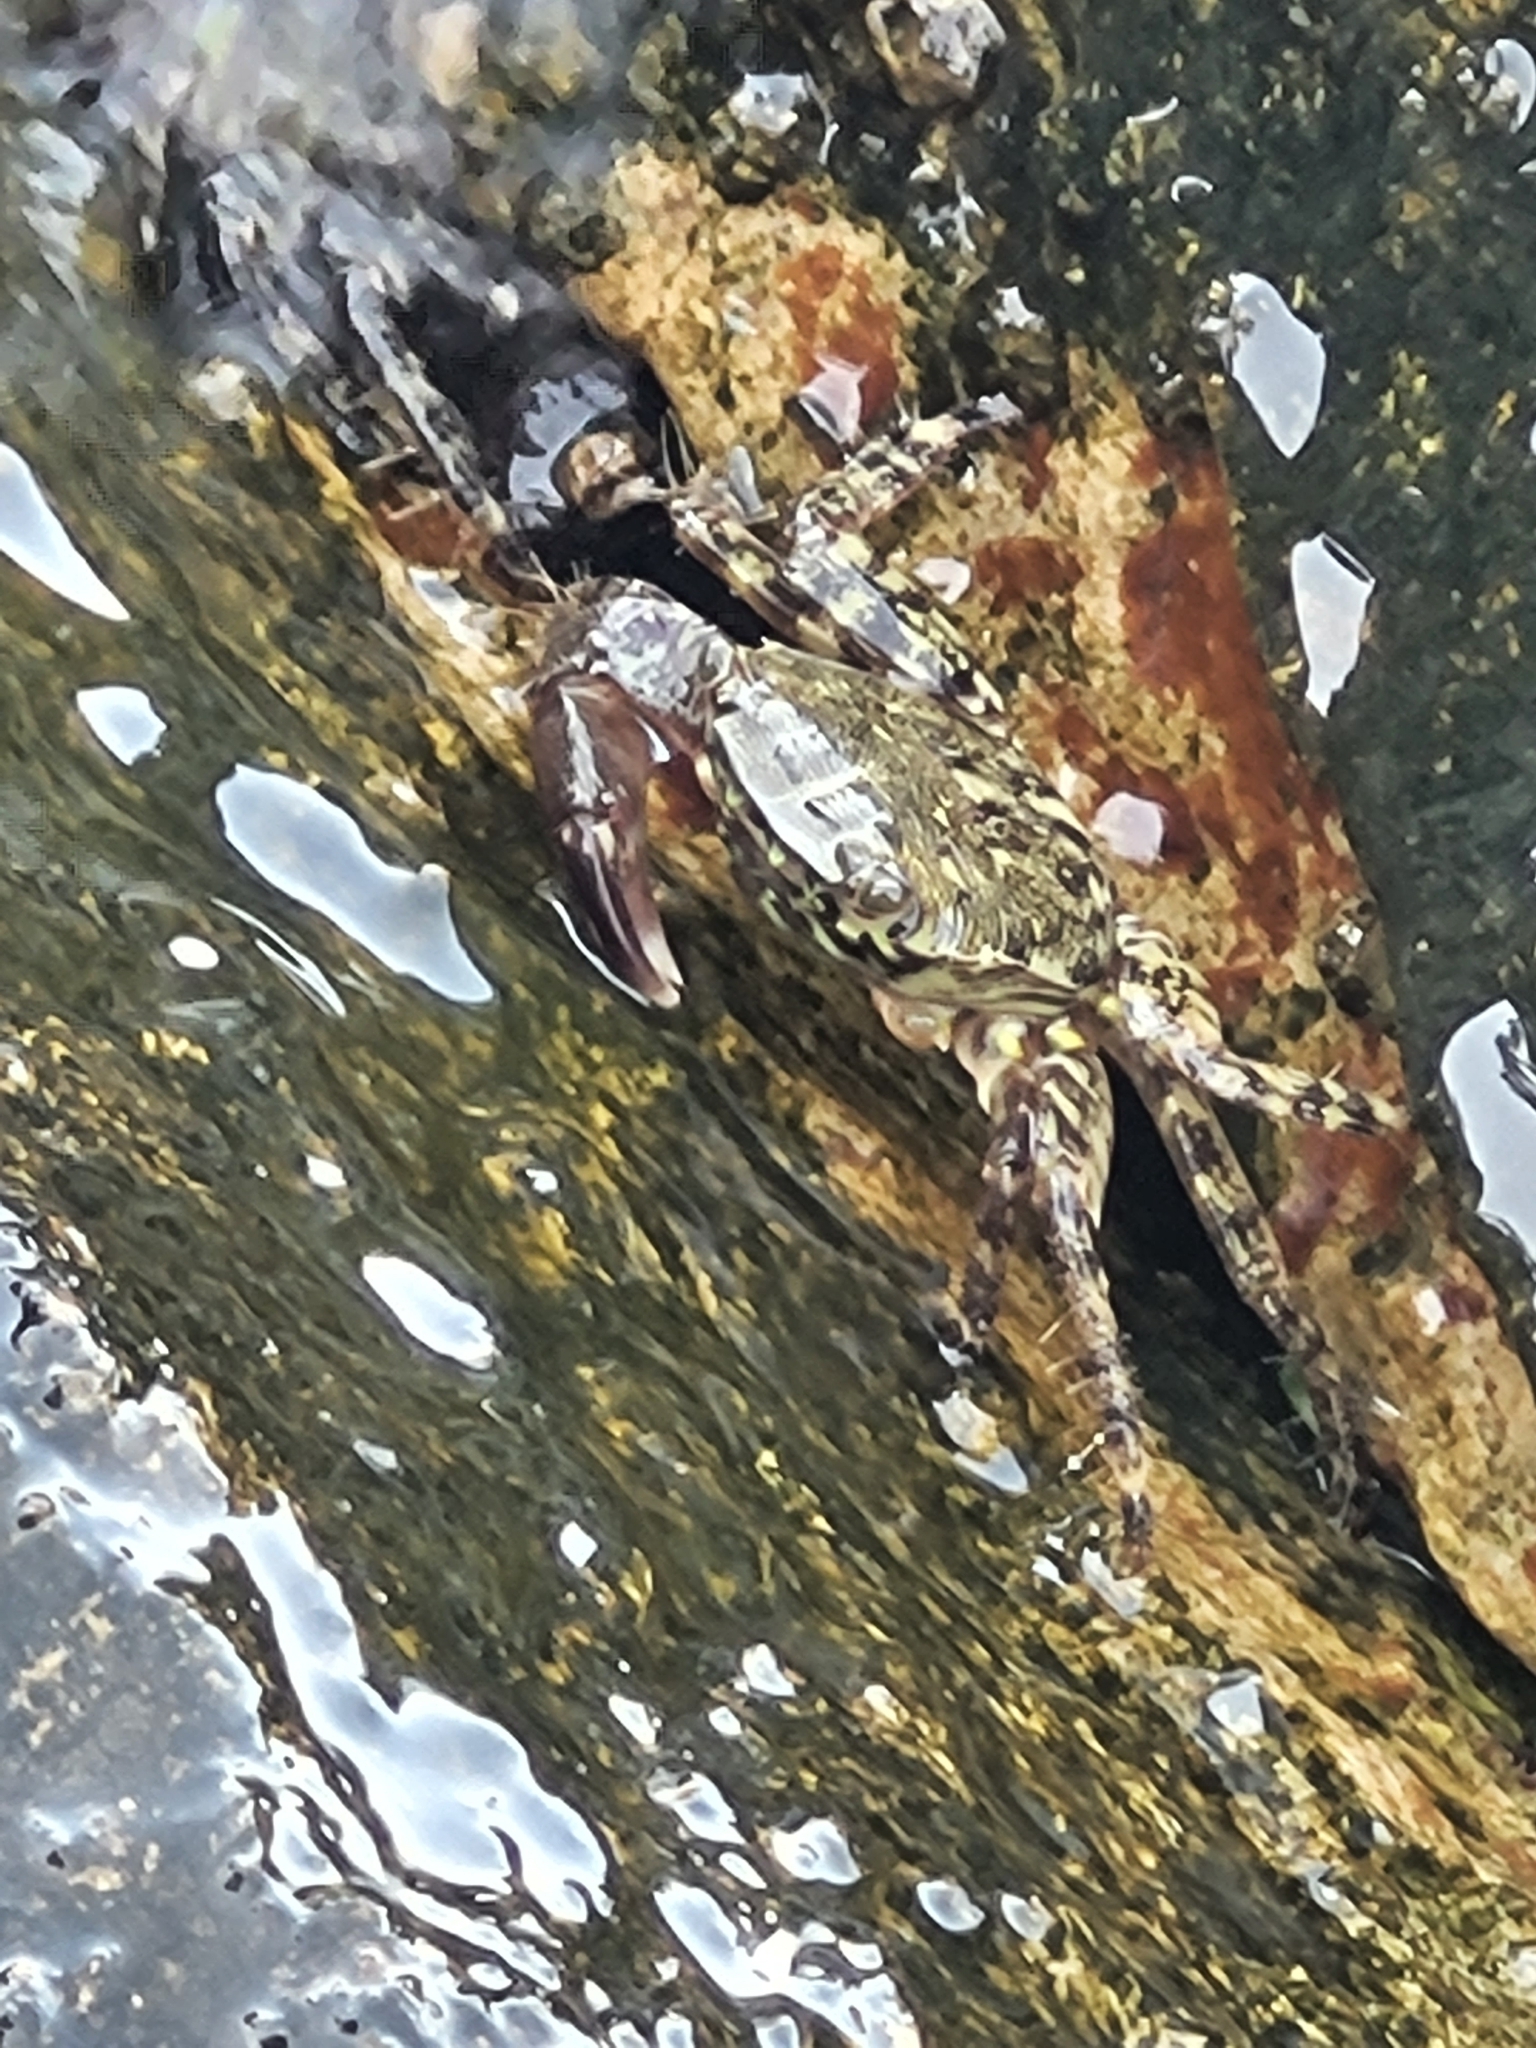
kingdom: Animalia
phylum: Arthropoda
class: Malacostraca
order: Decapoda
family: Grapsidae
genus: Pachygrapsus
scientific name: Pachygrapsus marmoratus
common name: Marbled rock crab
